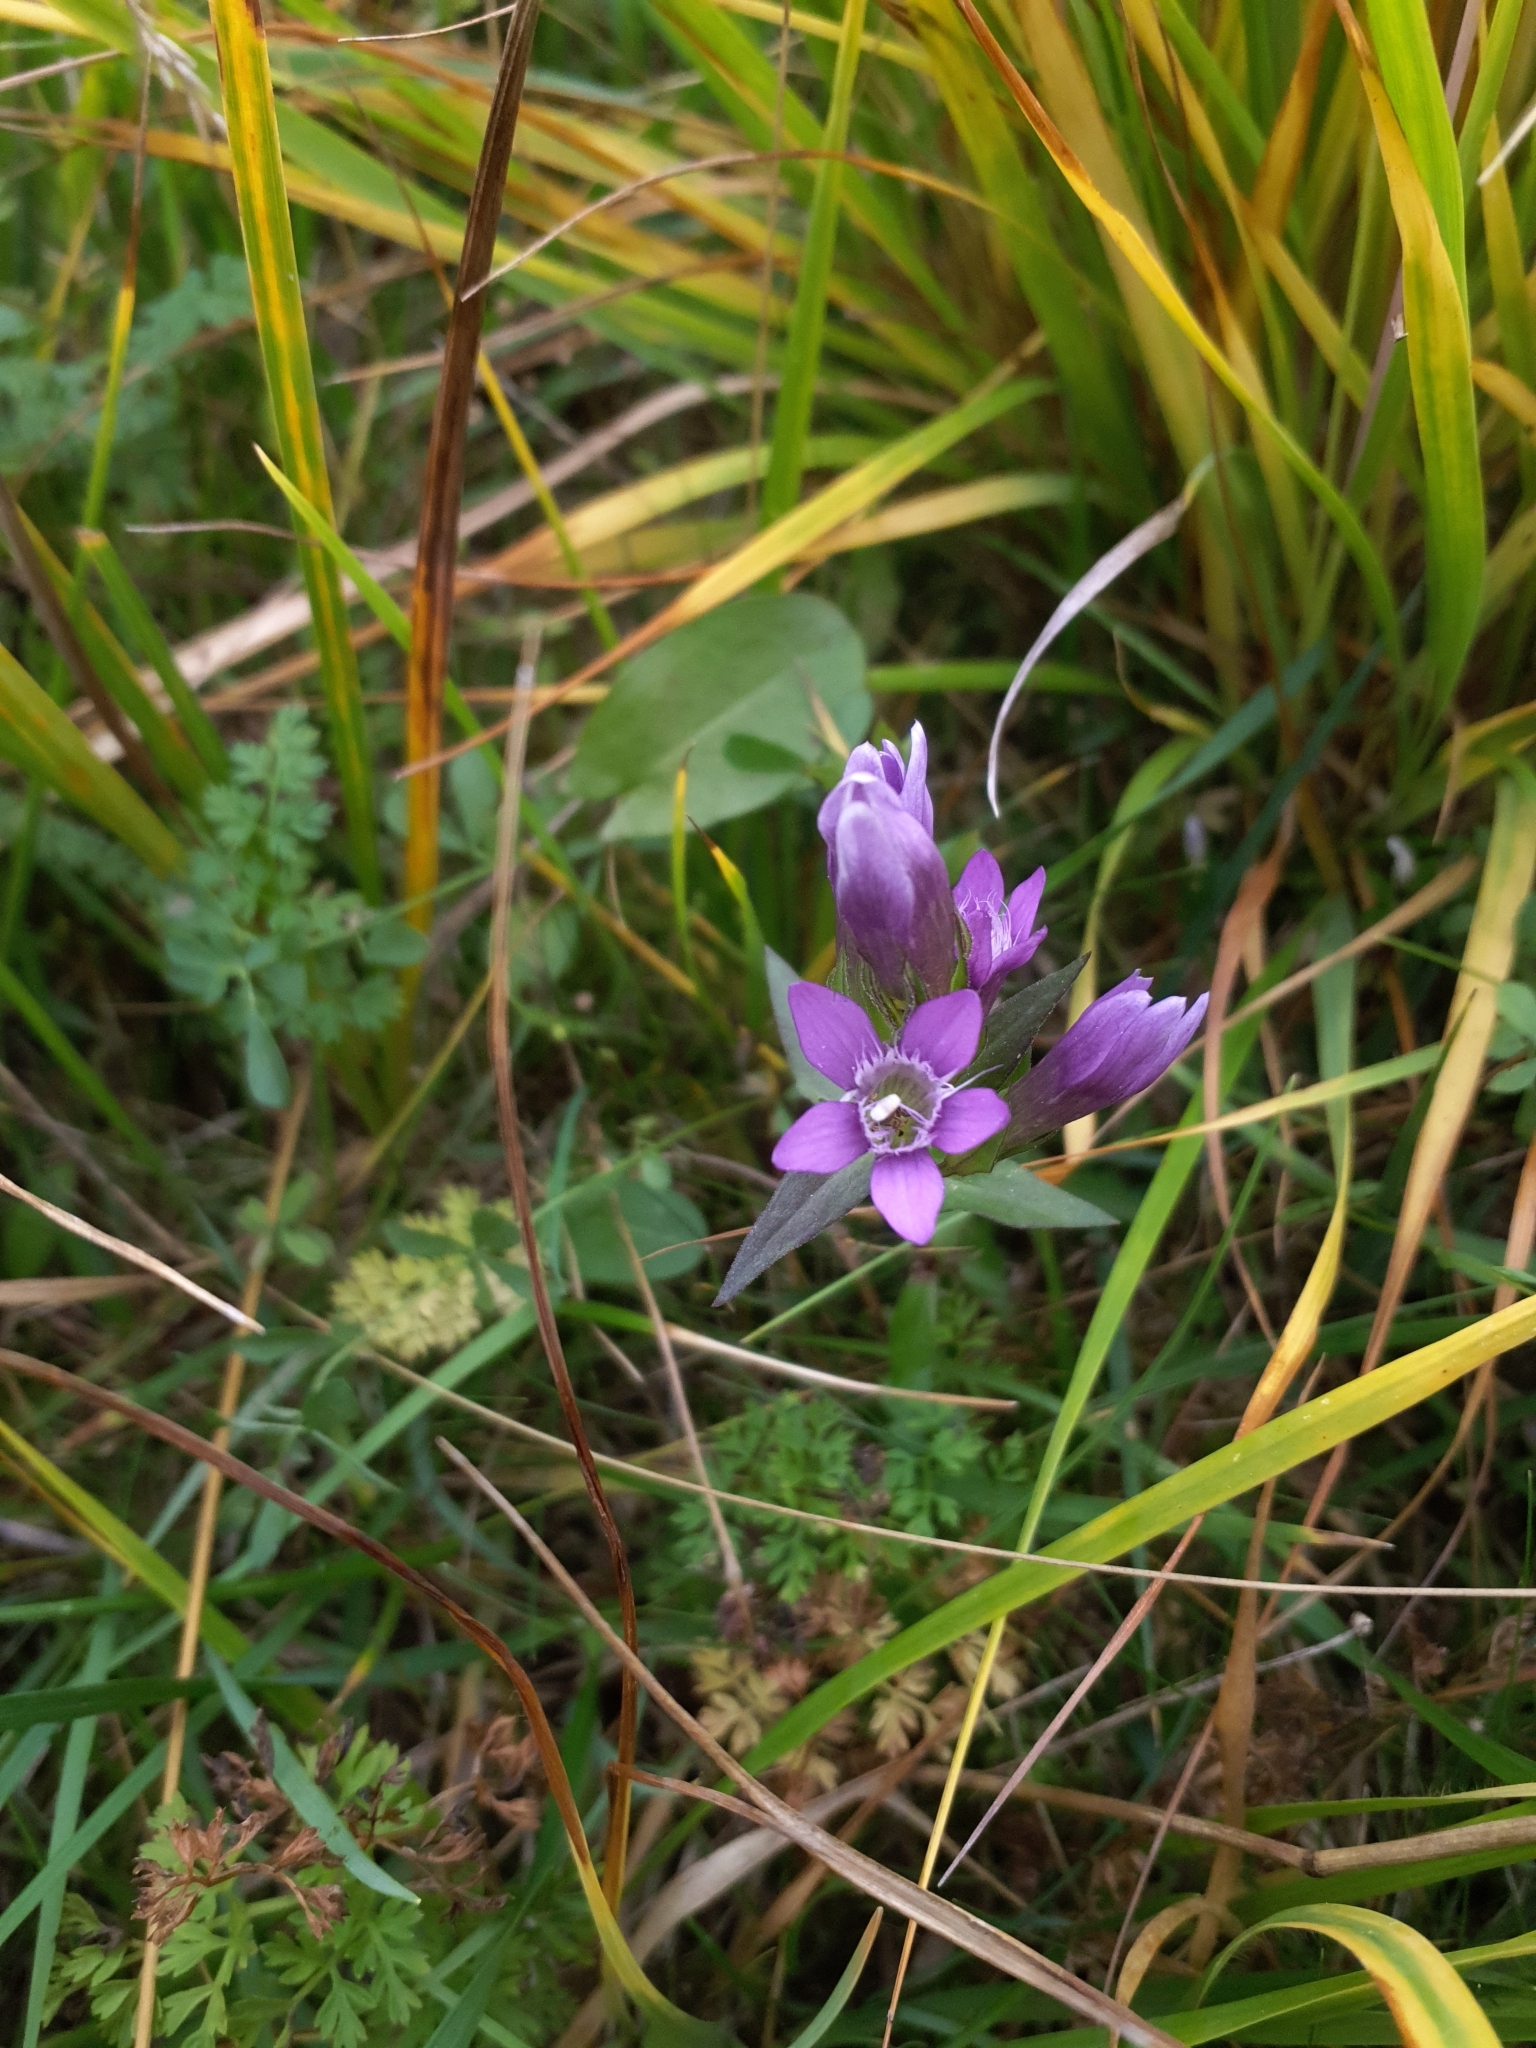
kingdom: Plantae
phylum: Tracheophyta
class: Magnoliopsida
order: Gentianales
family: Gentianaceae
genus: Gentianella
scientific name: Gentianella obtusifolia
